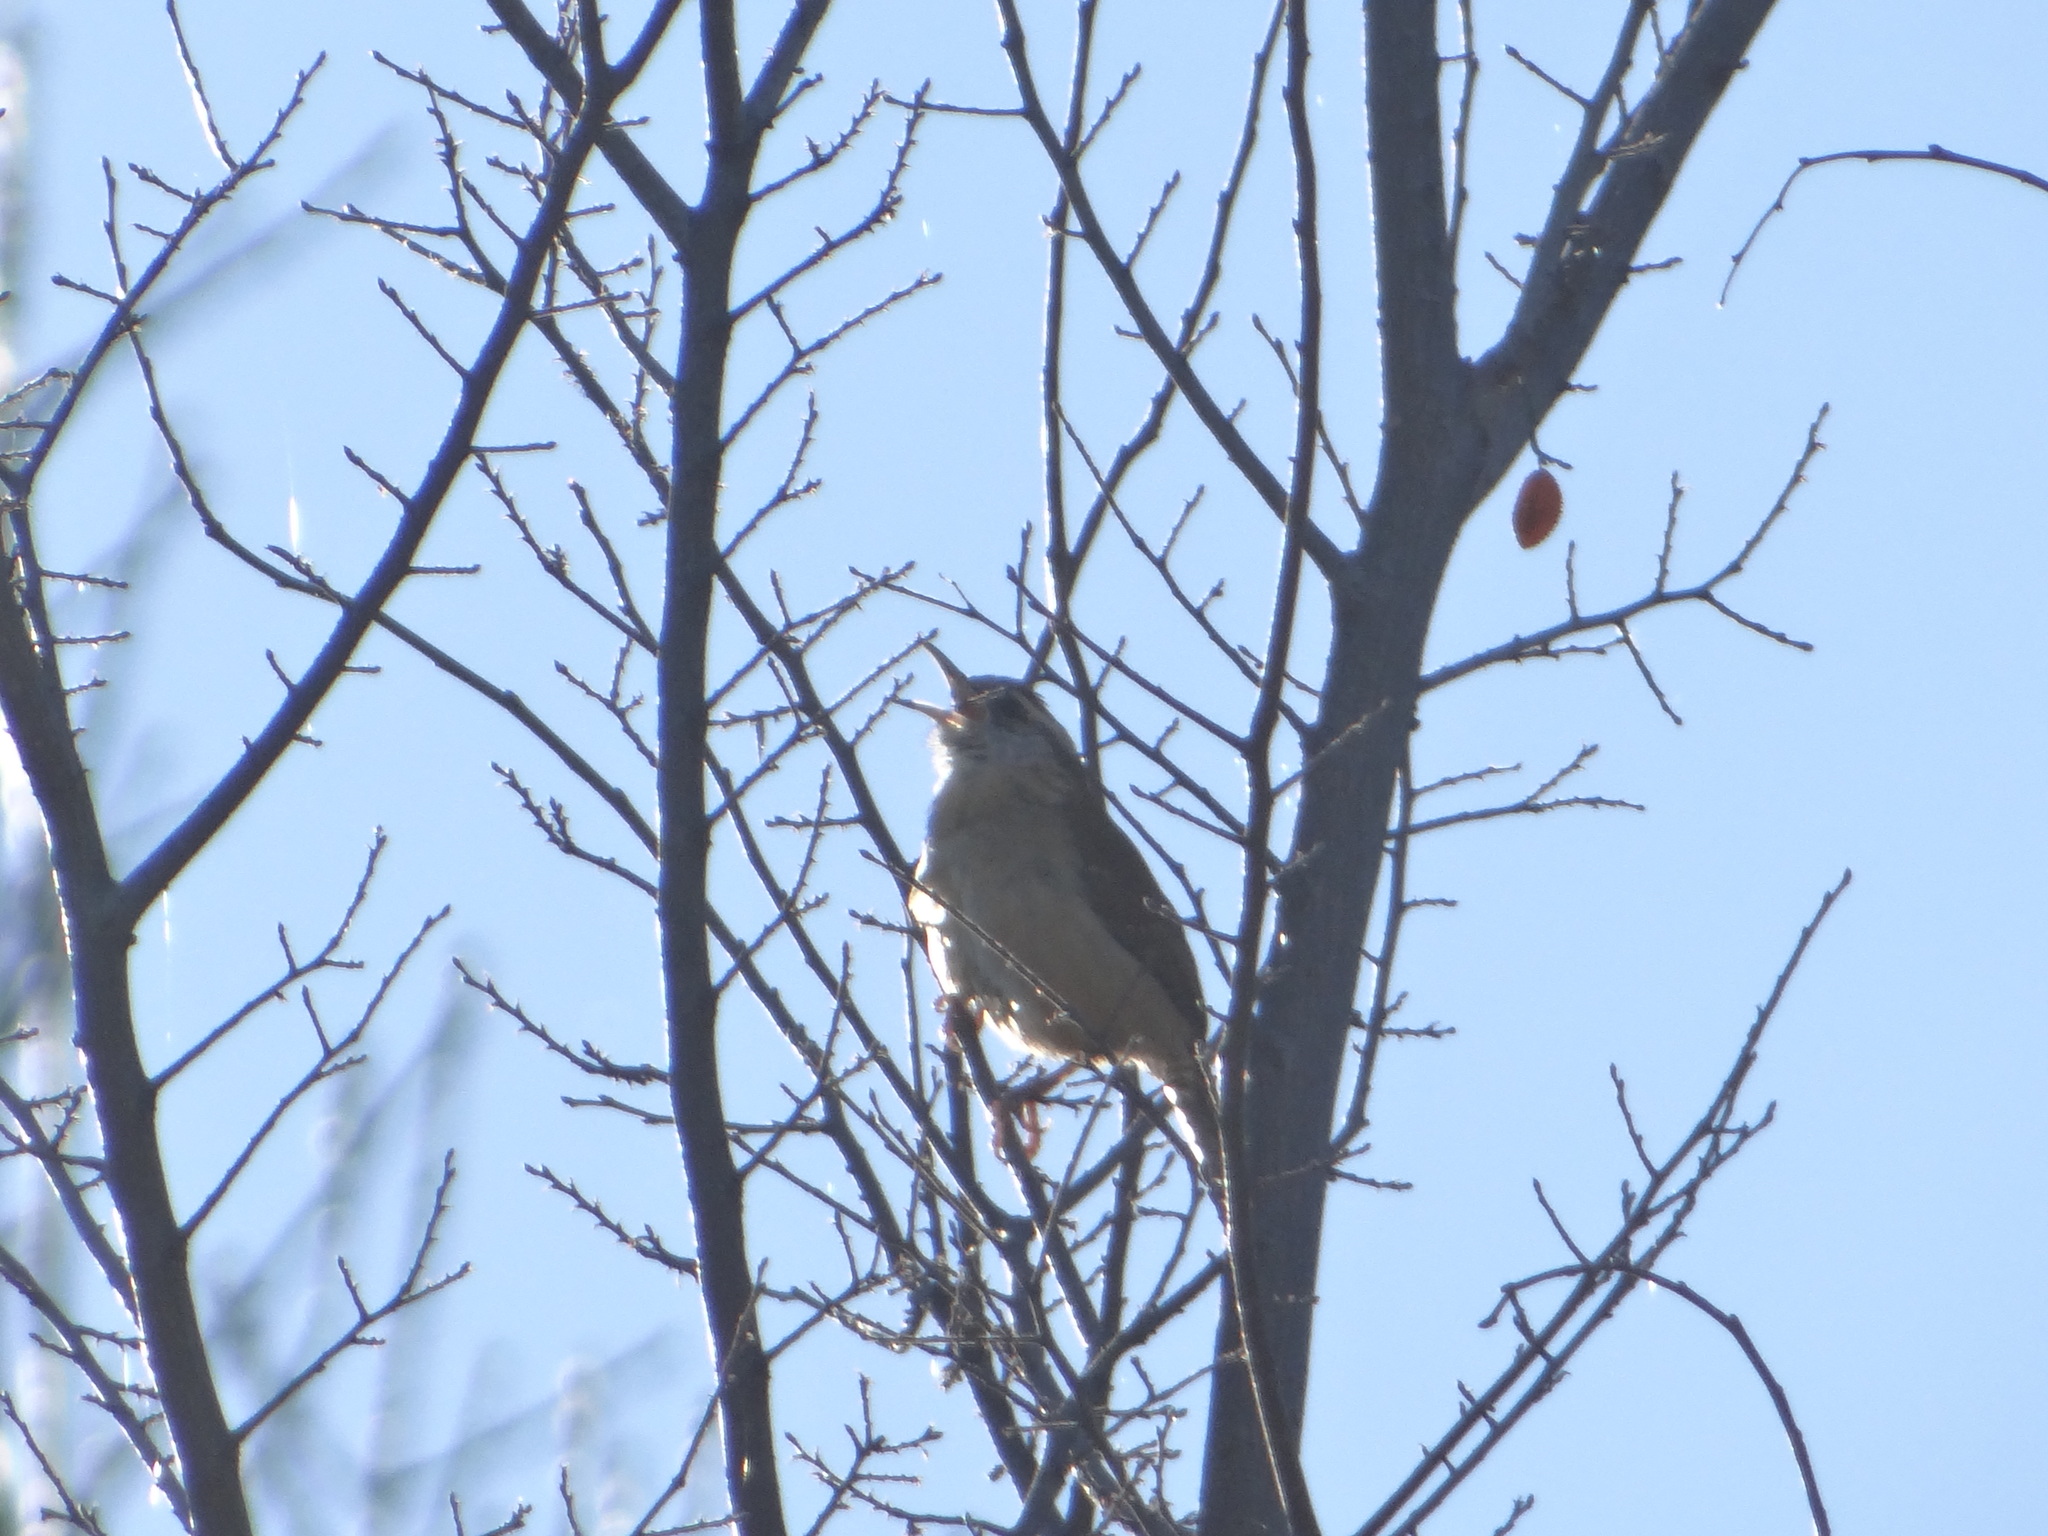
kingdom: Animalia
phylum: Chordata
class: Aves
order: Passeriformes
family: Troglodytidae
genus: Thryothorus
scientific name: Thryothorus ludovicianus
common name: Carolina wren
